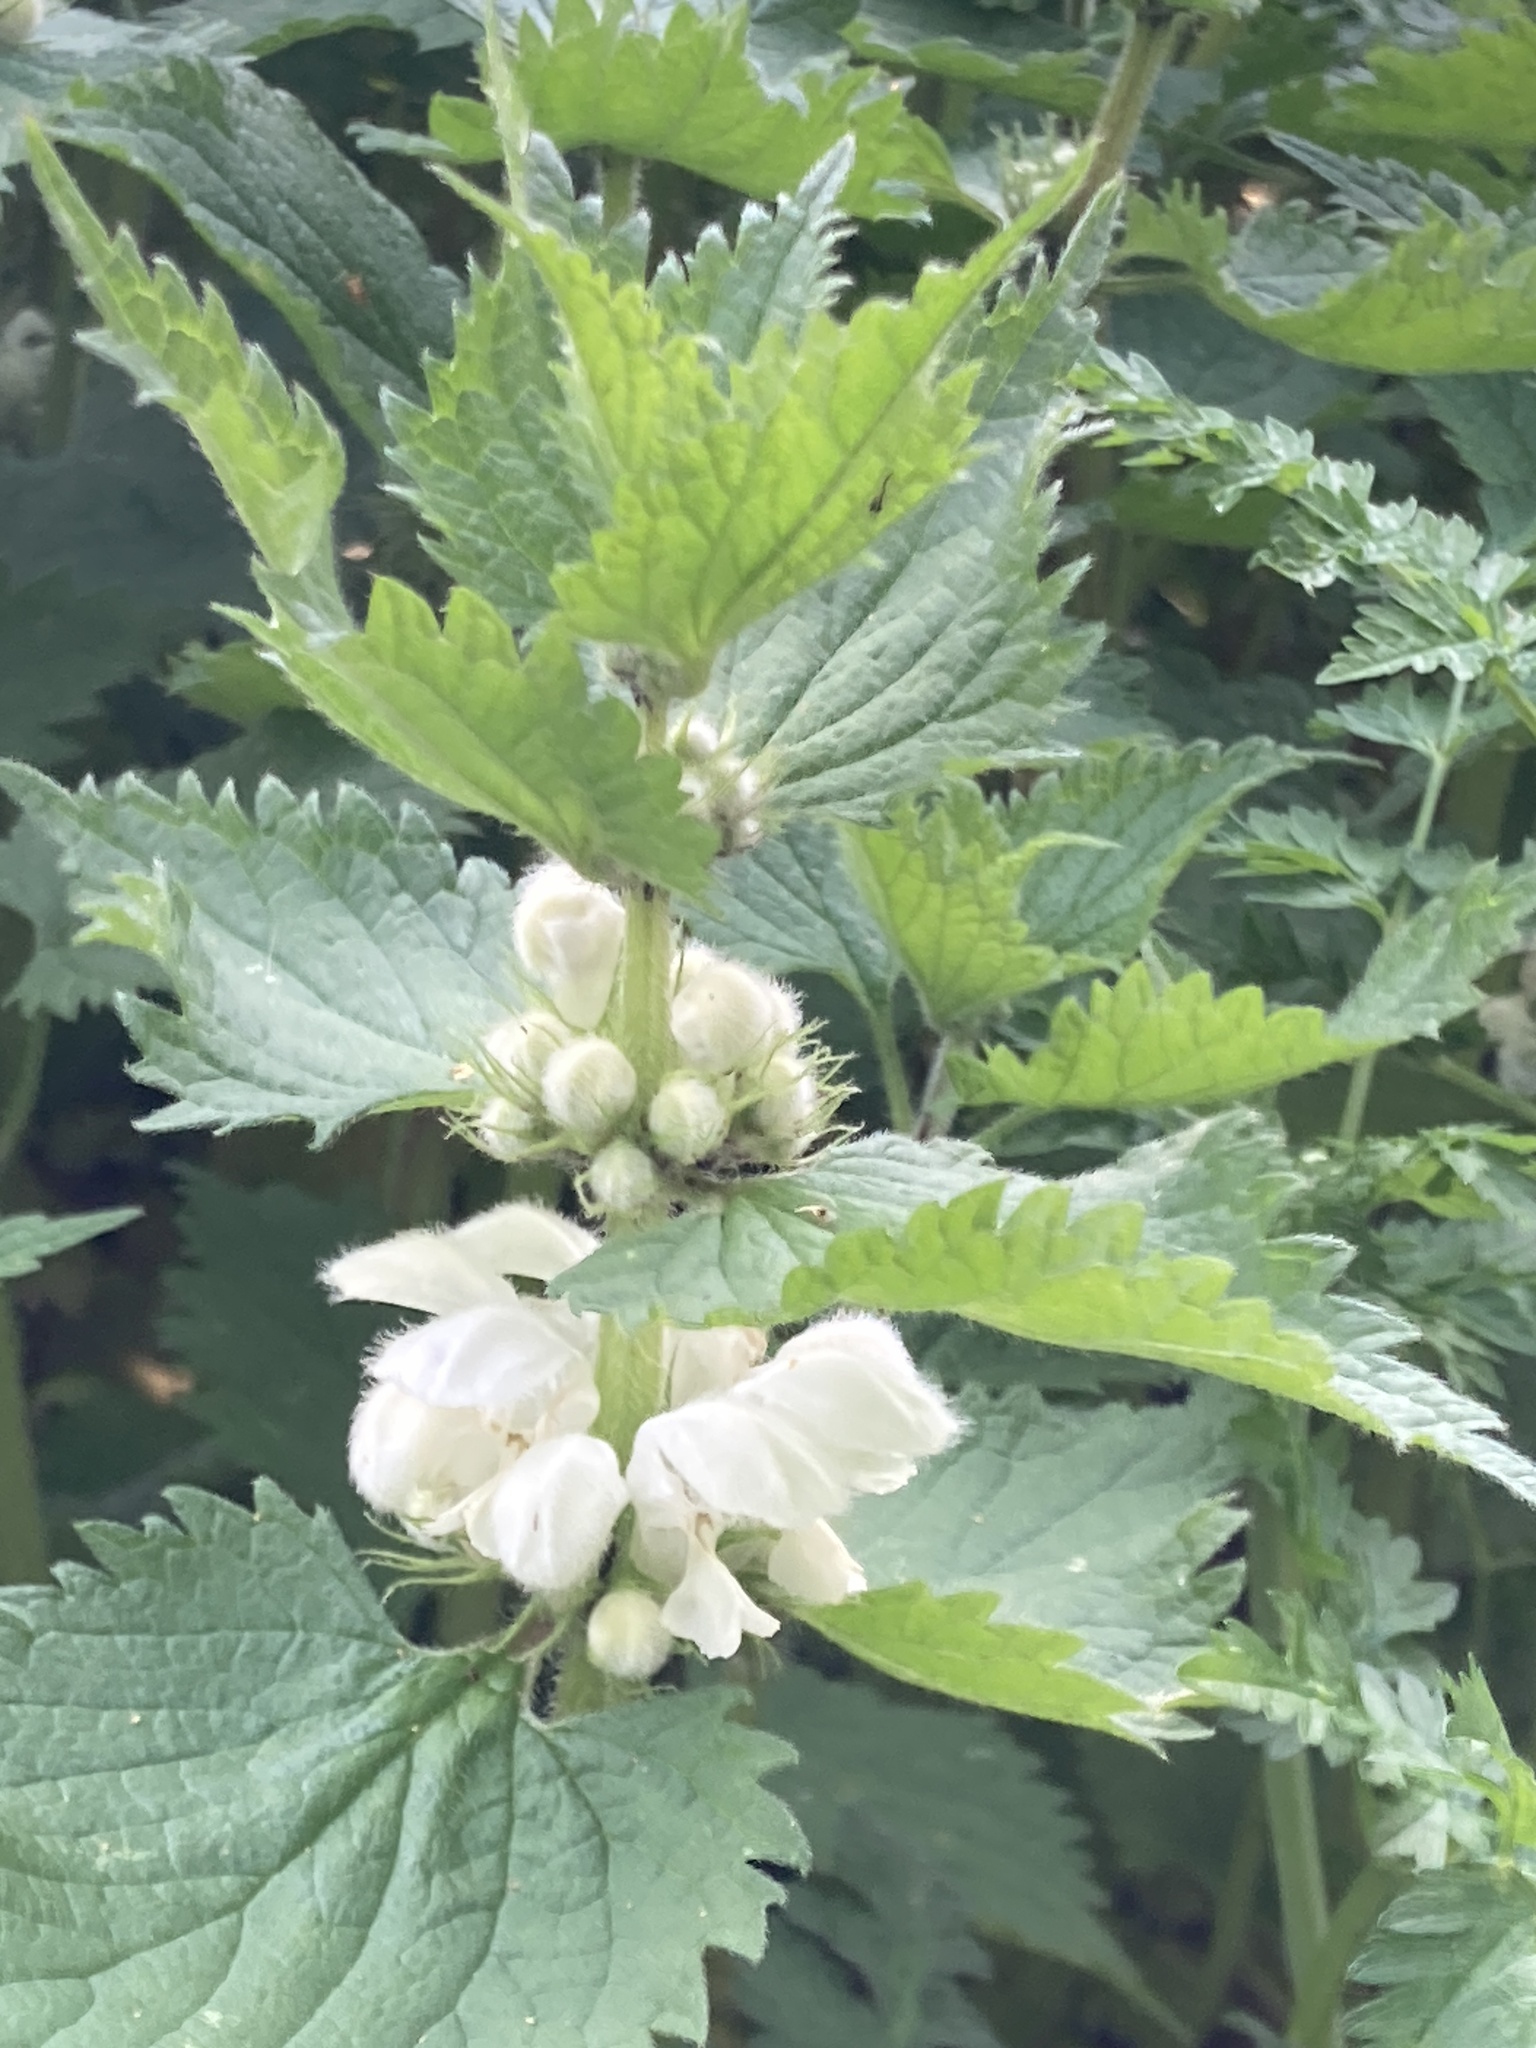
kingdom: Plantae
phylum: Tracheophyta
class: Magnoliopsida
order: Lamiales
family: Lamiaceae
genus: Lamium
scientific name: Lamium album
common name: White dead-nettle
